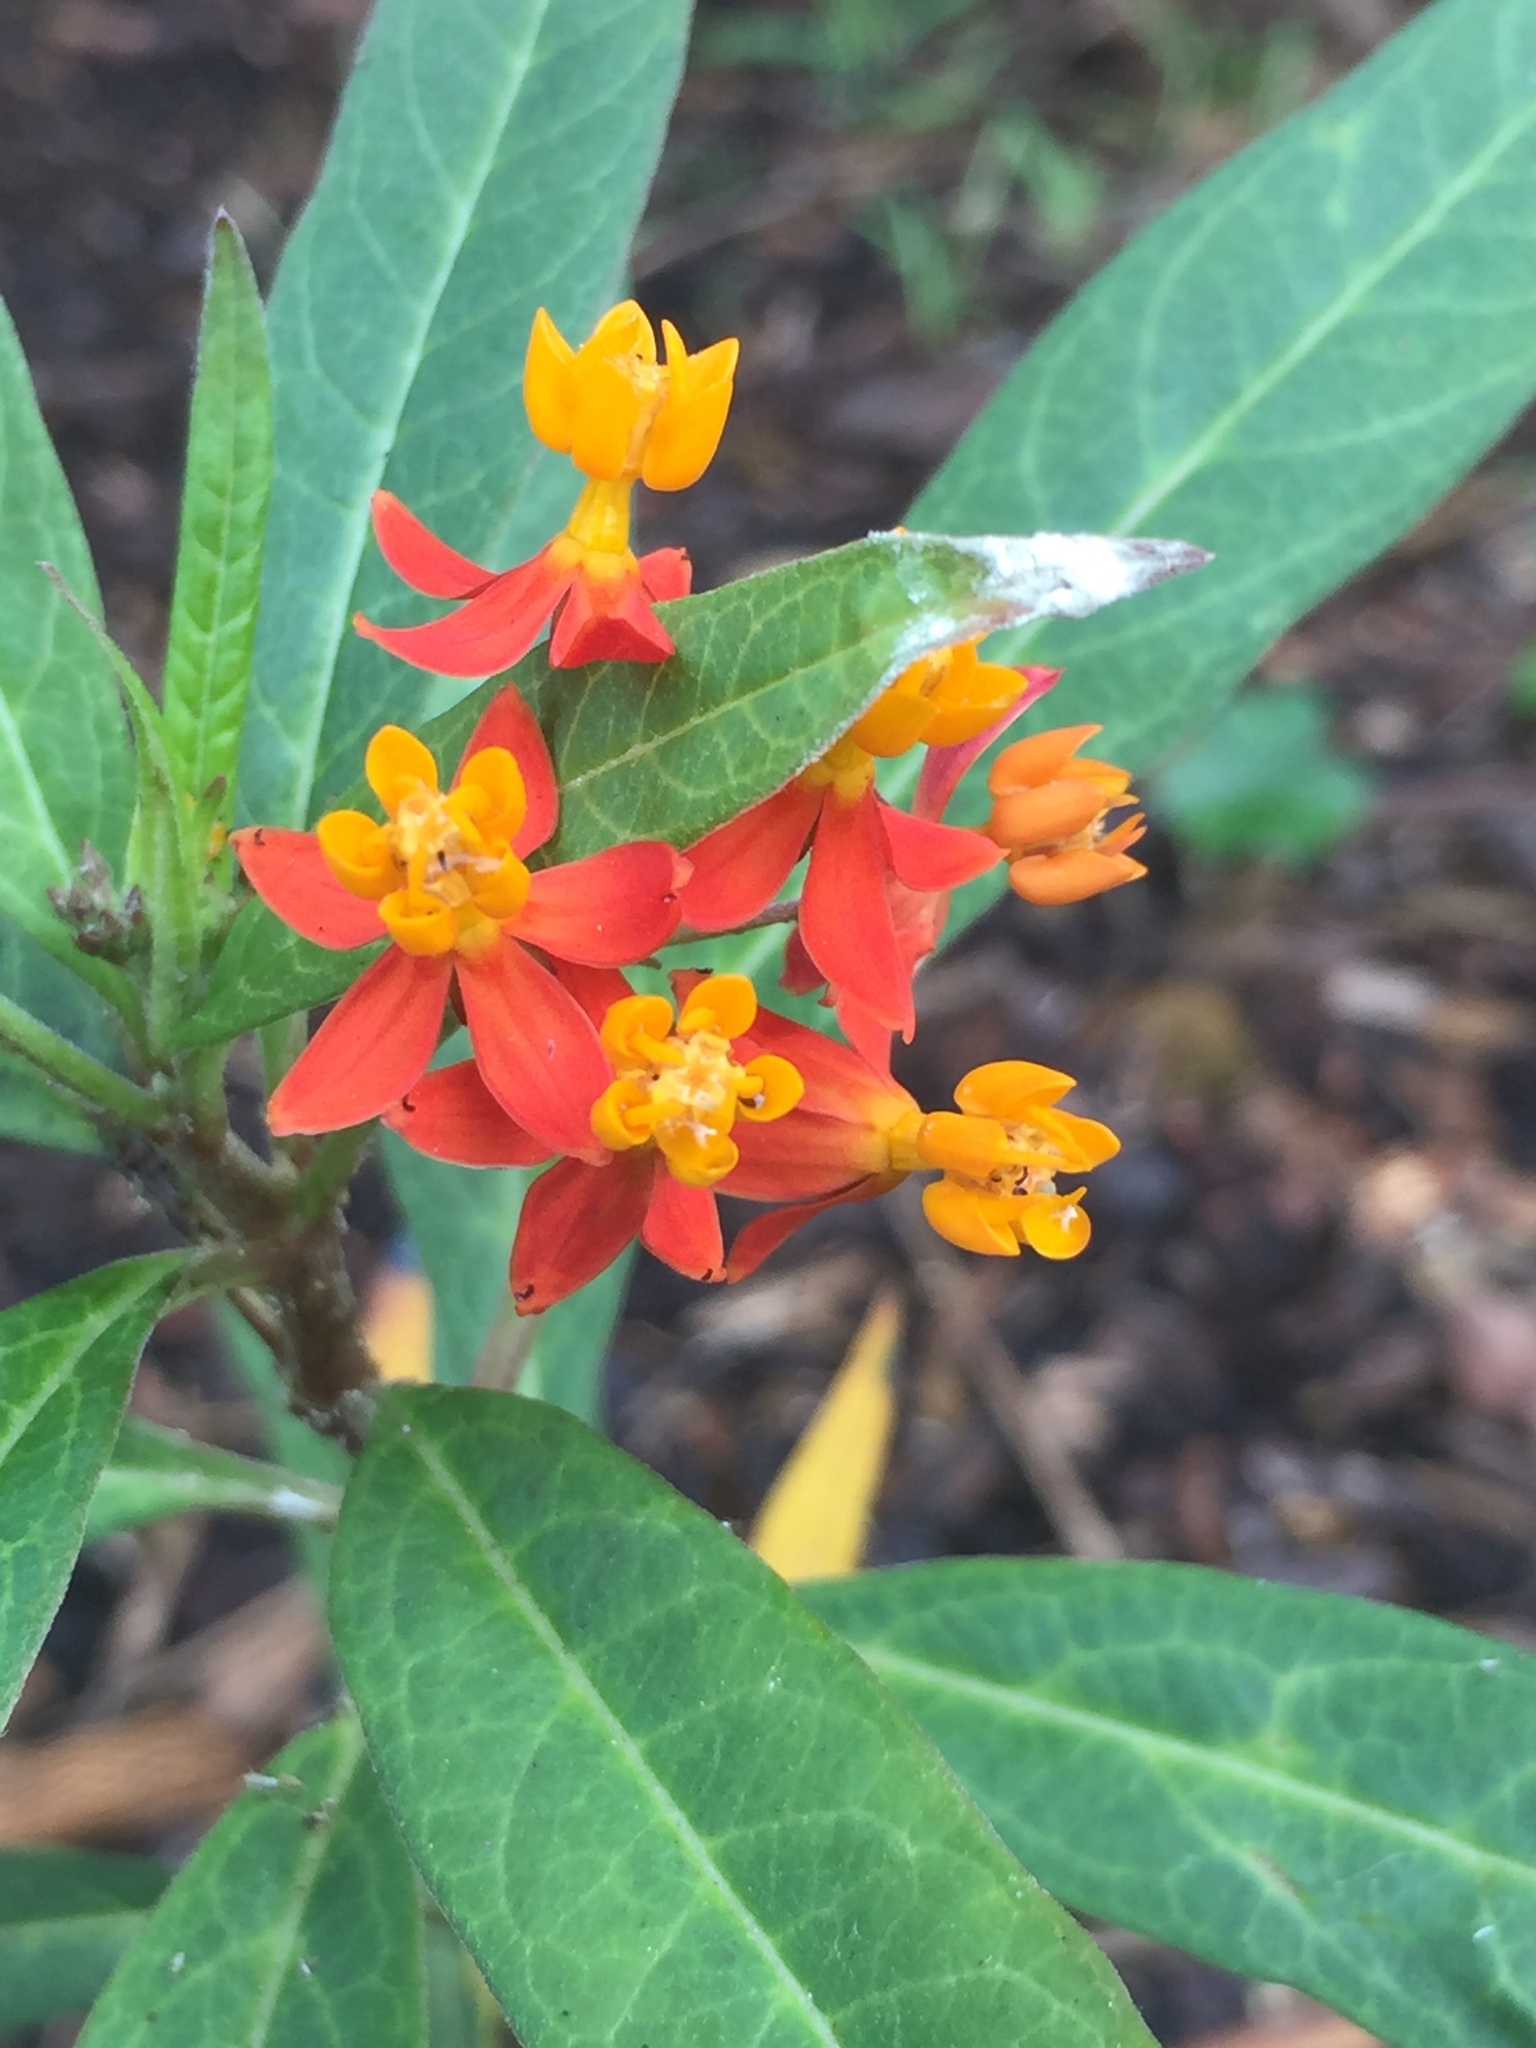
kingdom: Plantae
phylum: Tracheophyta
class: Magnoliopsida
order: Gentianales
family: Apocynaceae
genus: Asclepias
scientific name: Asclepias curassavica
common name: Bloodflower
